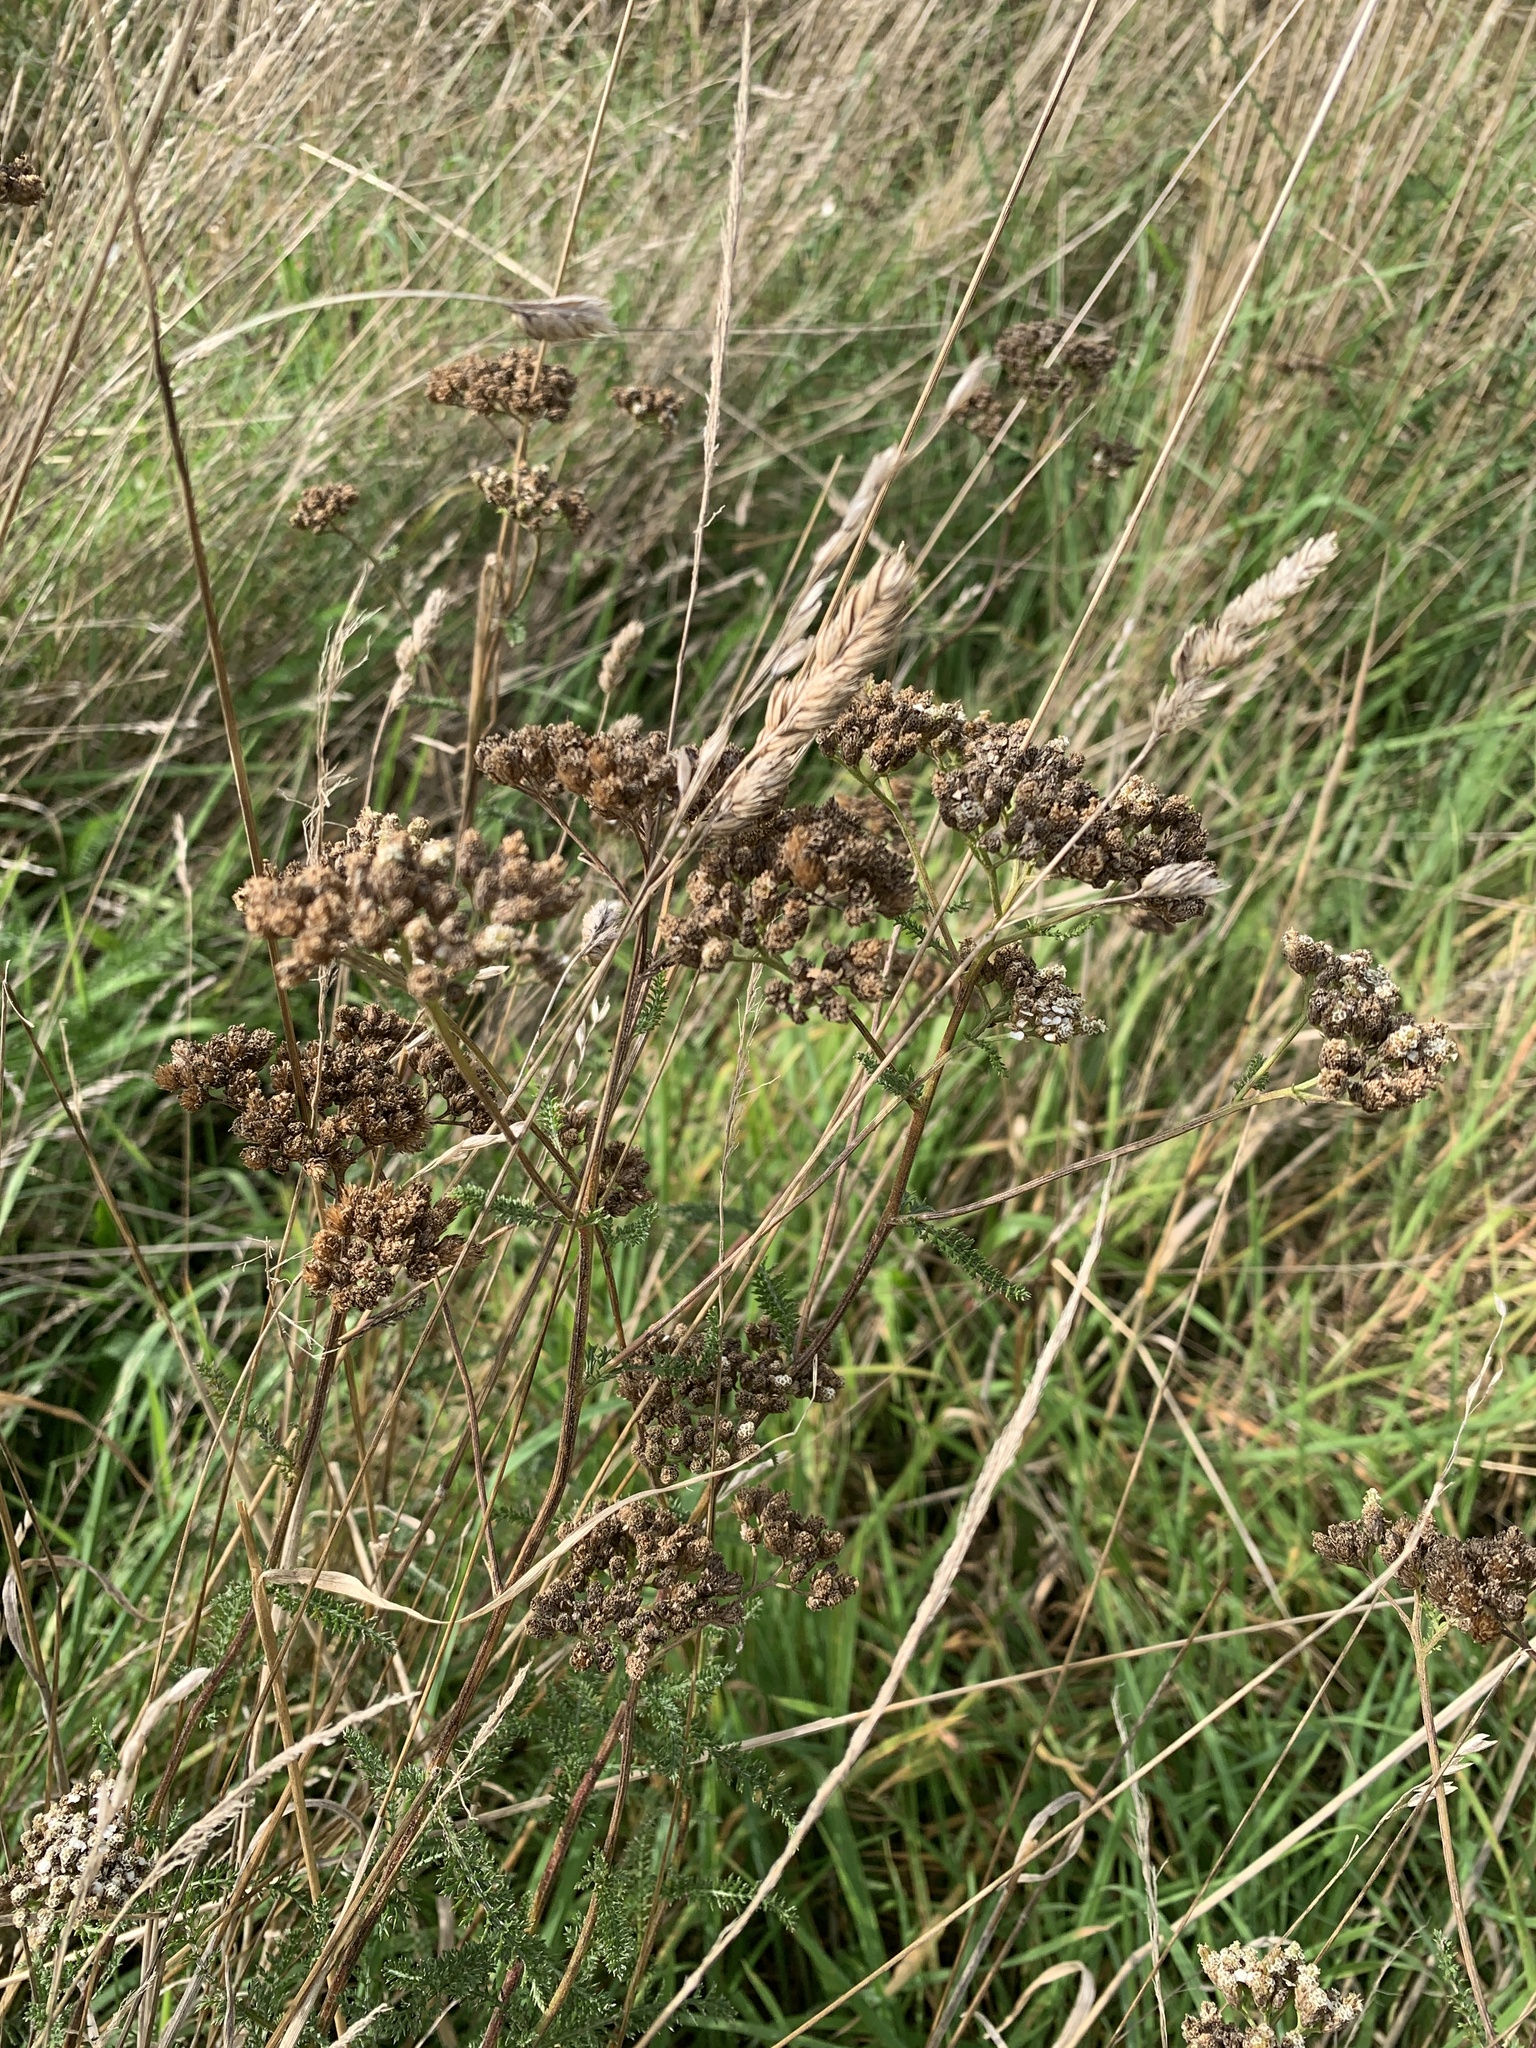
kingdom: Plantae
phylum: Tracheophyta
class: Magnoliopsida
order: Asterales
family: Asteraceae
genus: Achillea
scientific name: Achillea millefolium
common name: Yarrow
